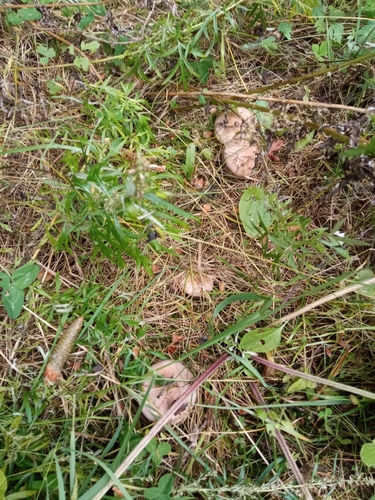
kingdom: Fungi
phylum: Basidiomycota
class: Agaricomycetes
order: Agaricales
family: Tricholomataceae
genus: Clitocybe
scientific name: Clitocybe nebularis
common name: Clouded agaric
